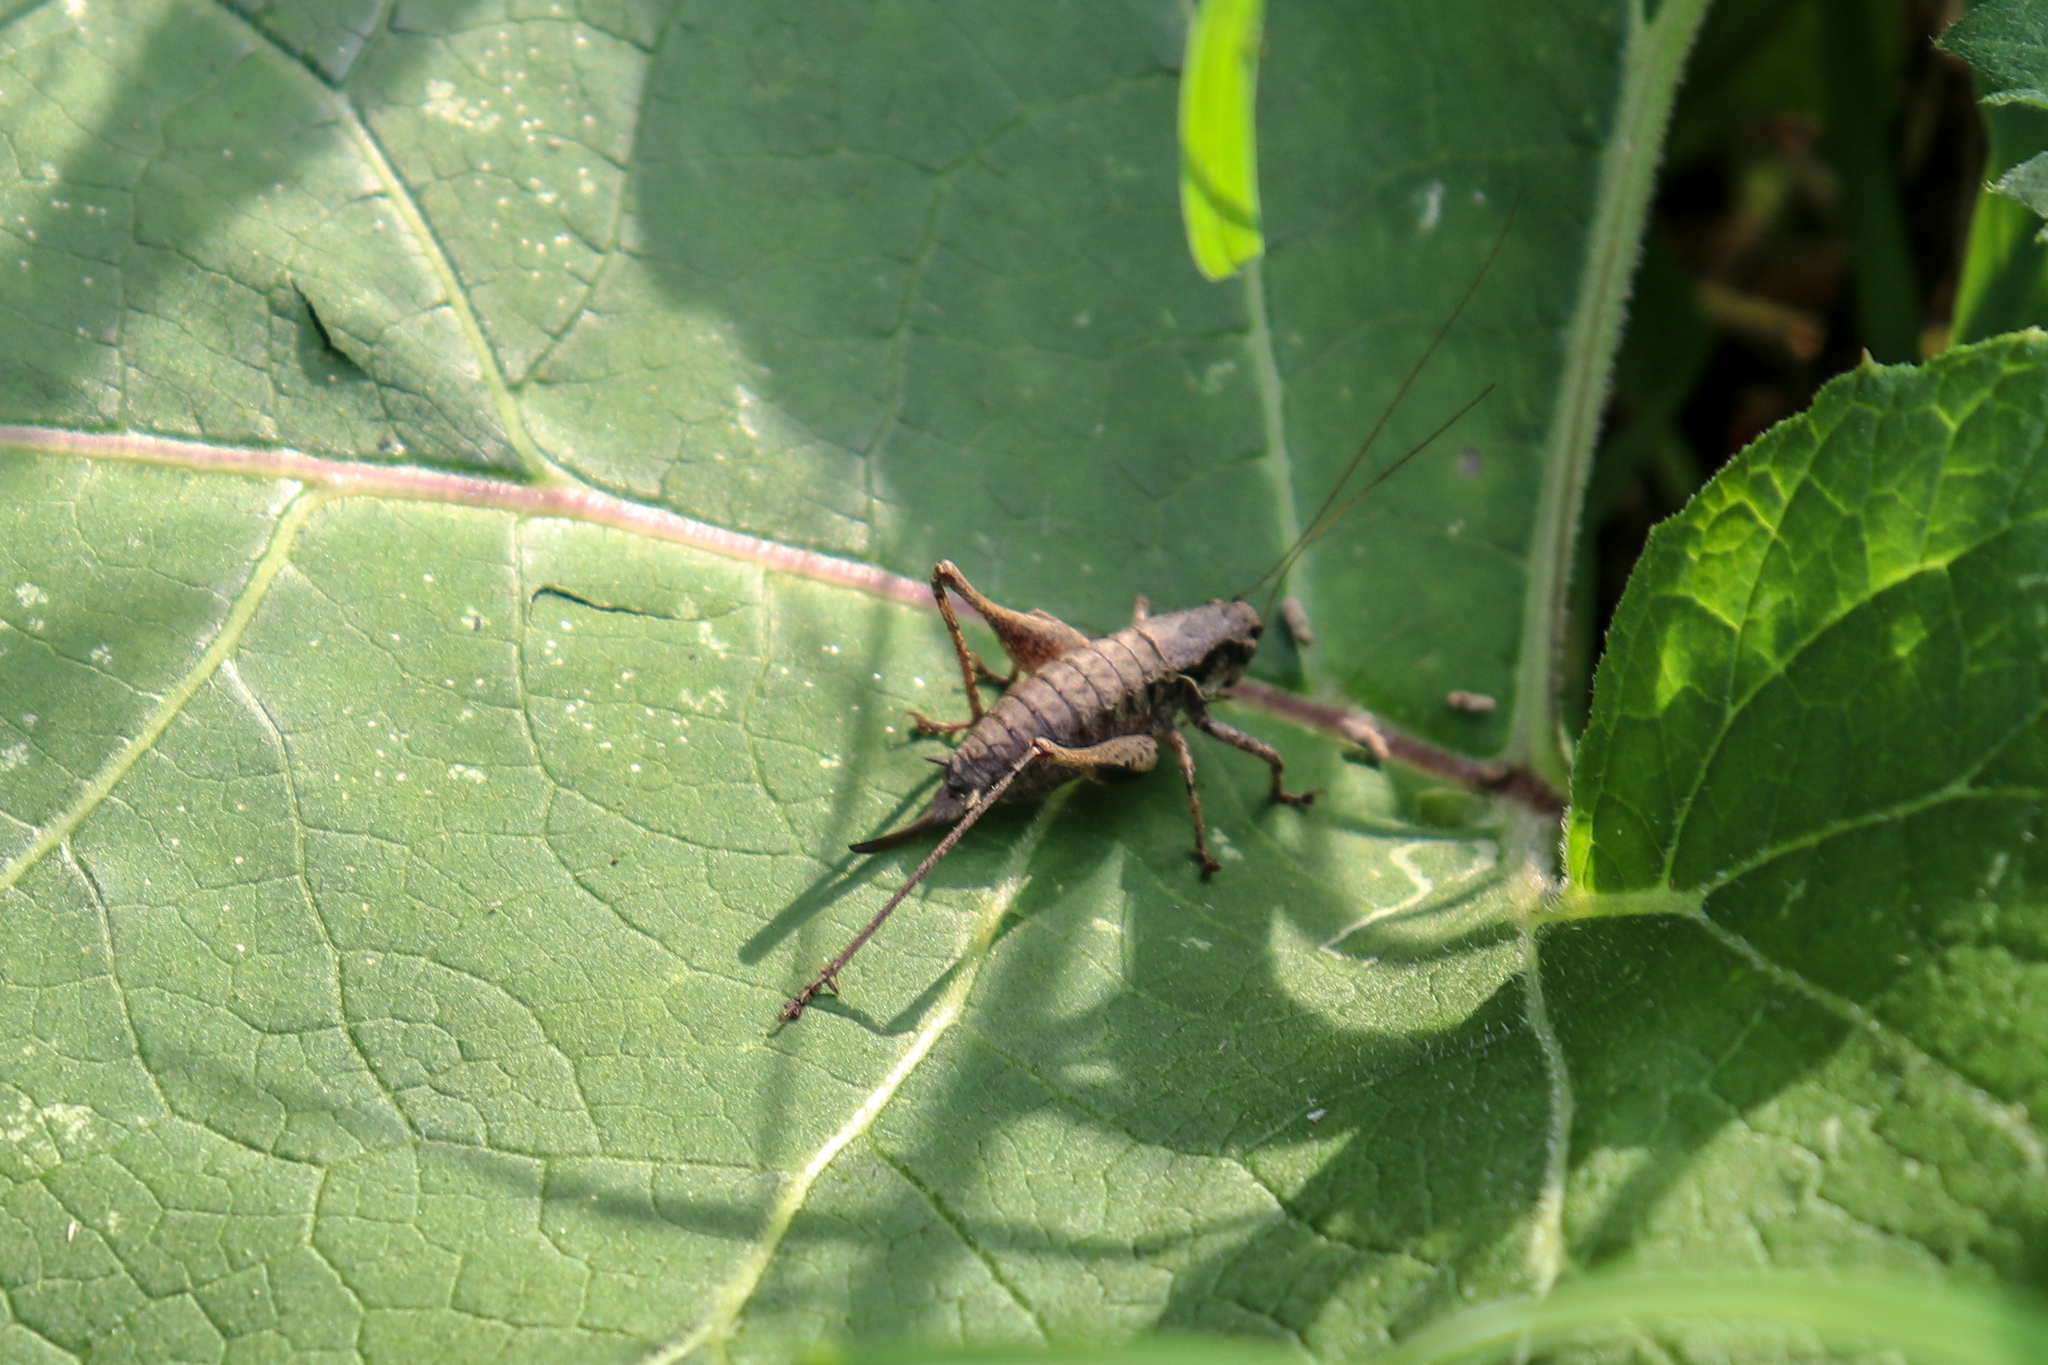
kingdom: Animalia
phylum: Arthropoda
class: Insecta
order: Orthoptera
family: Tettigoniidae
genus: Pholidoptera
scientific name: Pholidoptera griseoaptera
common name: Dark bush-cricket
